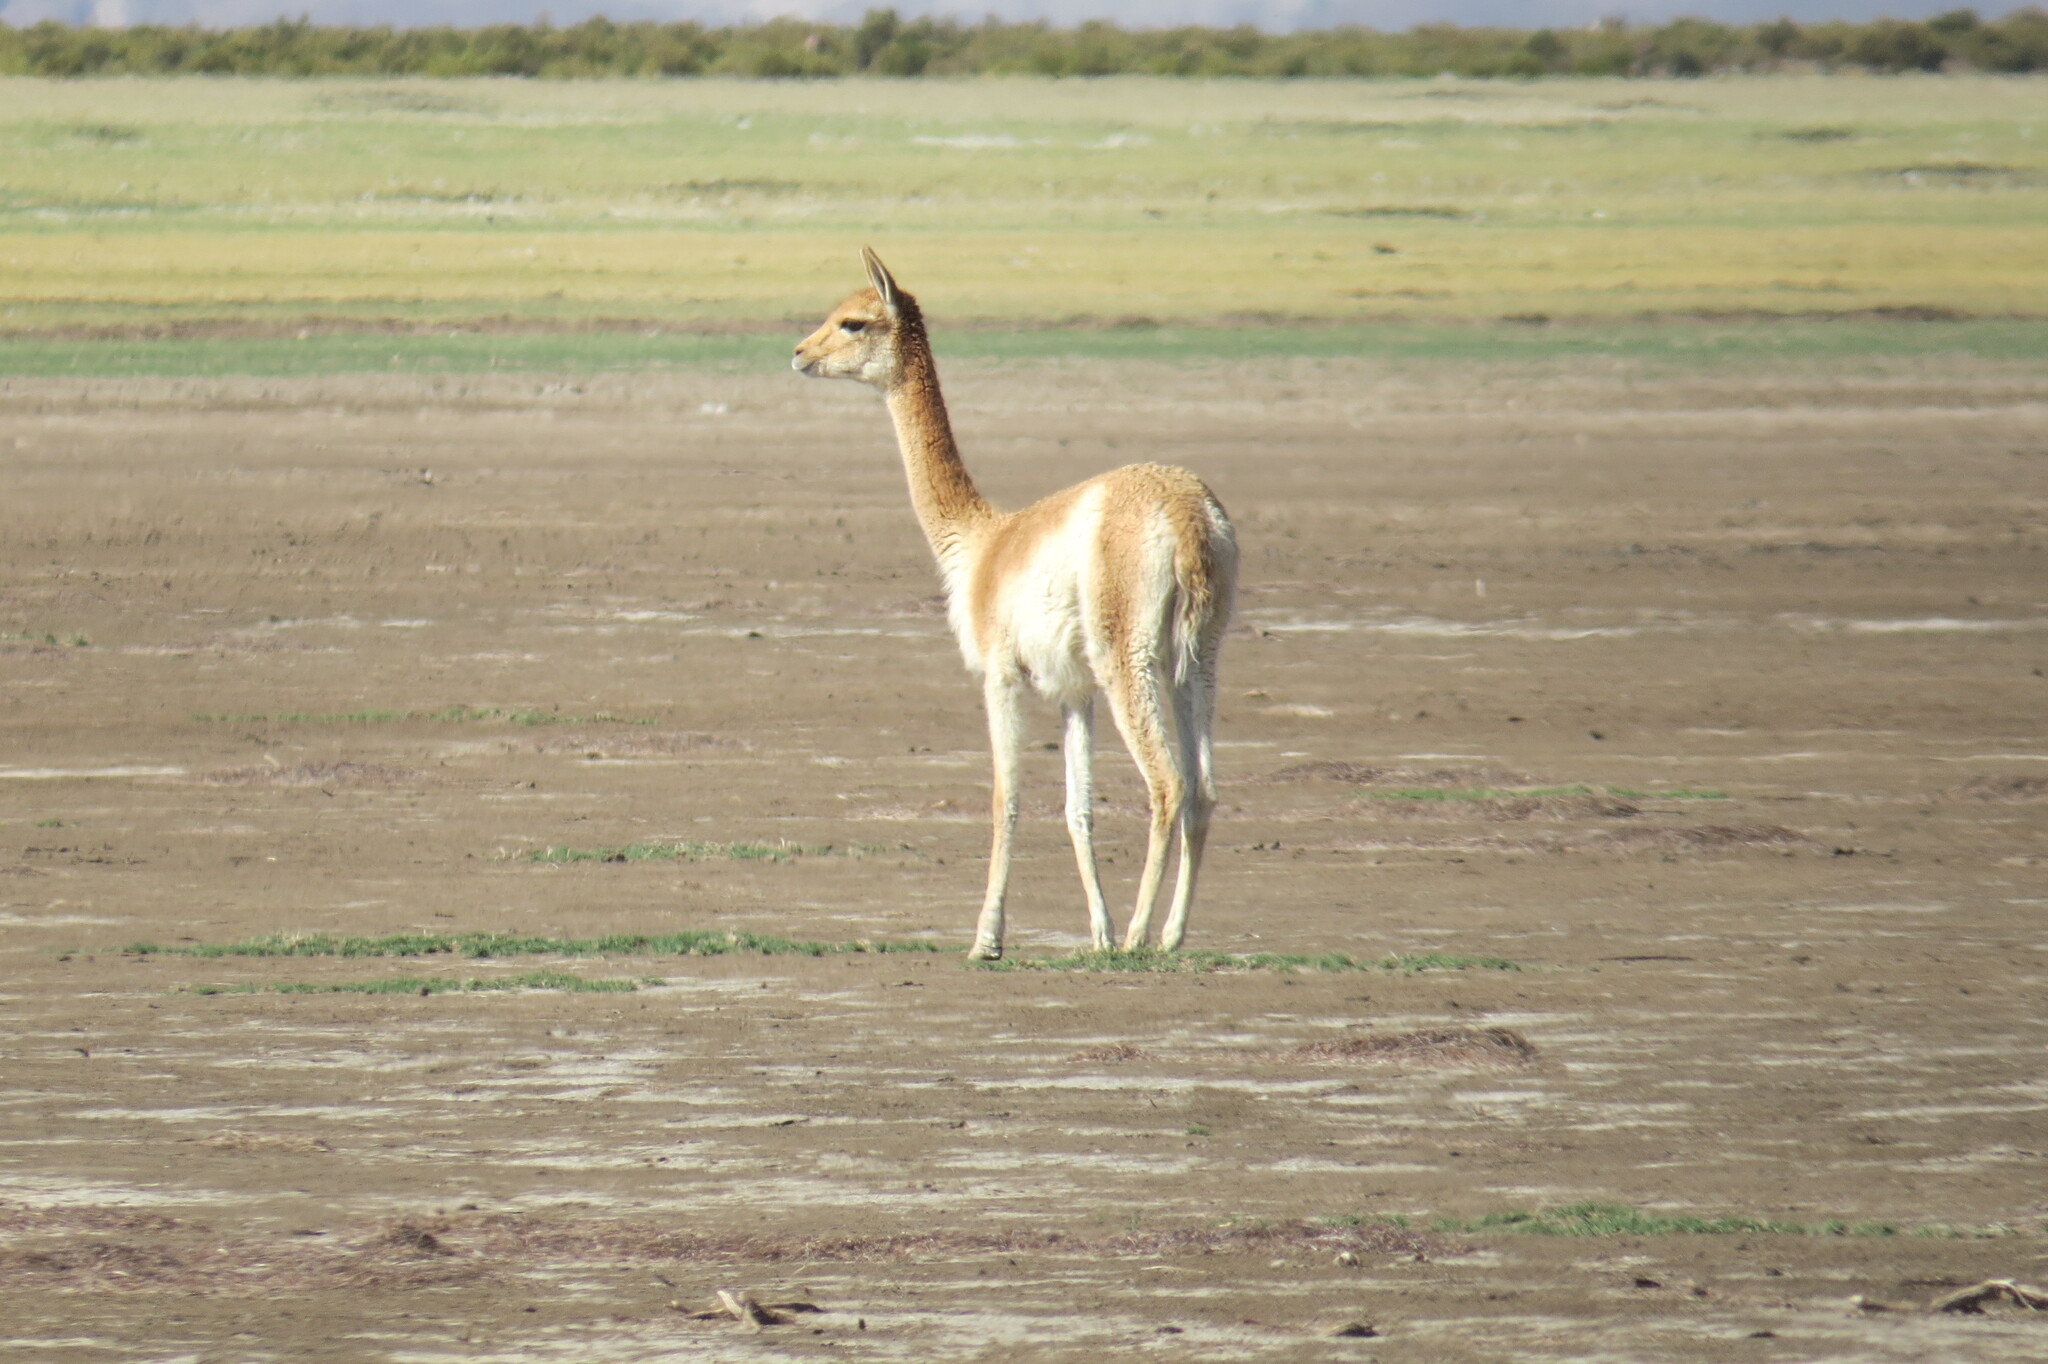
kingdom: Animalia
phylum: Chordata
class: Mammalia
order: Artiodactyla
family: Camelidae
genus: Vicugna
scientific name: Vicugna vicugna
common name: Vicugna
